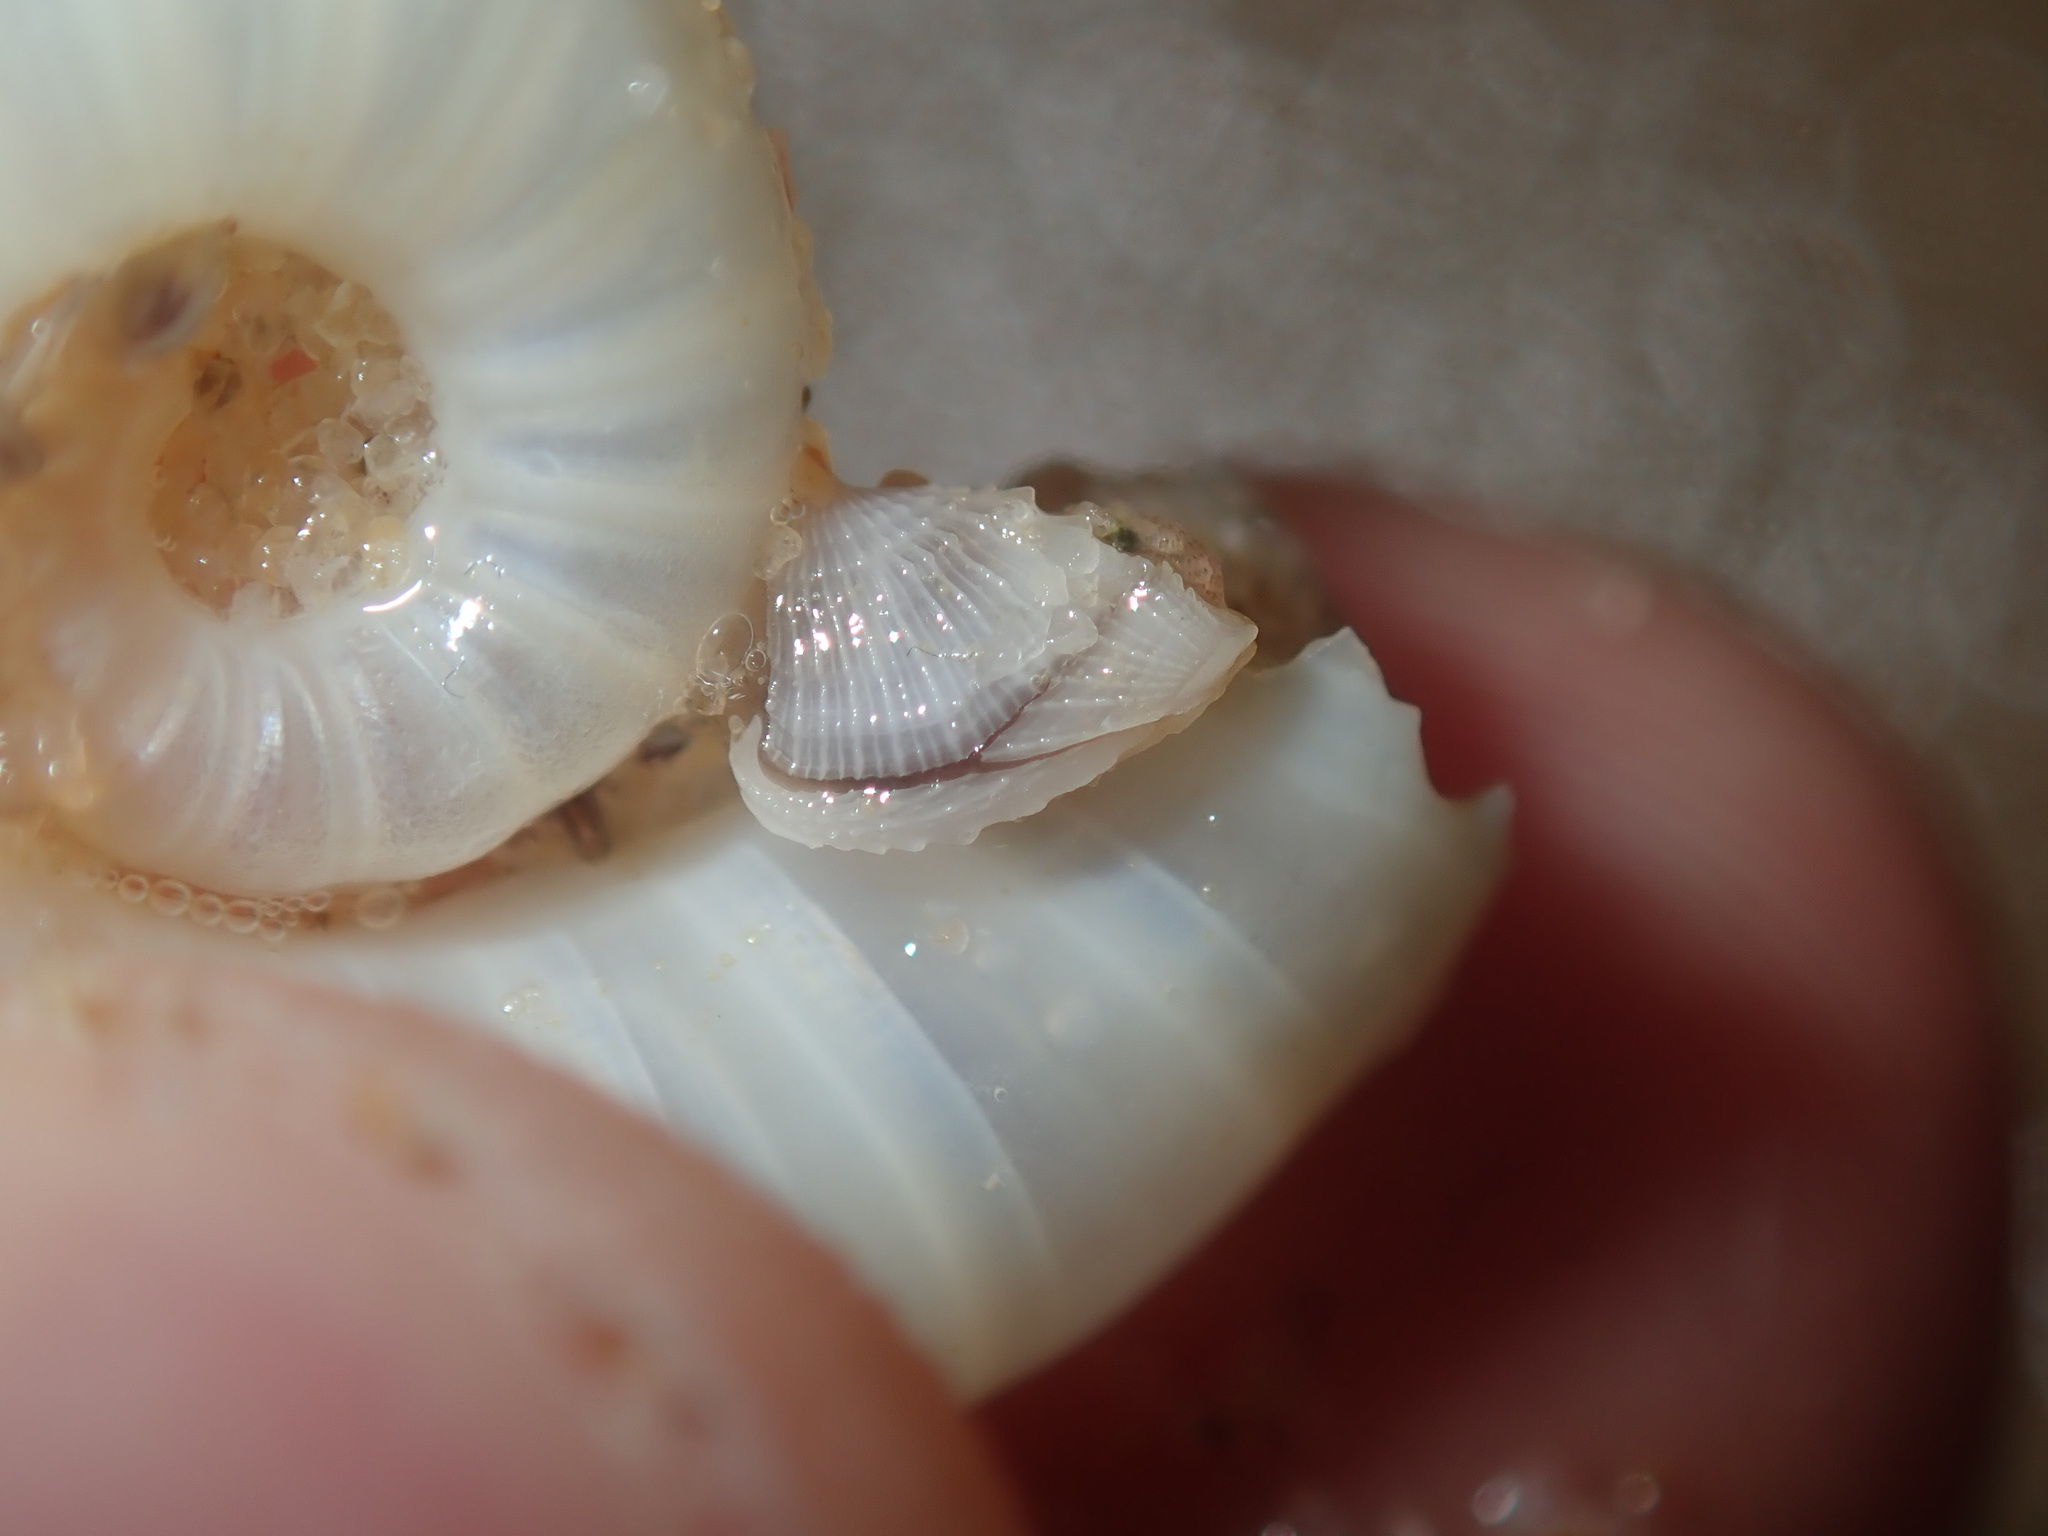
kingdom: Animalia
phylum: Arthropoda
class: Maxillopoda
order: Pedunculata
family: Lepadidae
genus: Lepas
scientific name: Lepas pectinata
